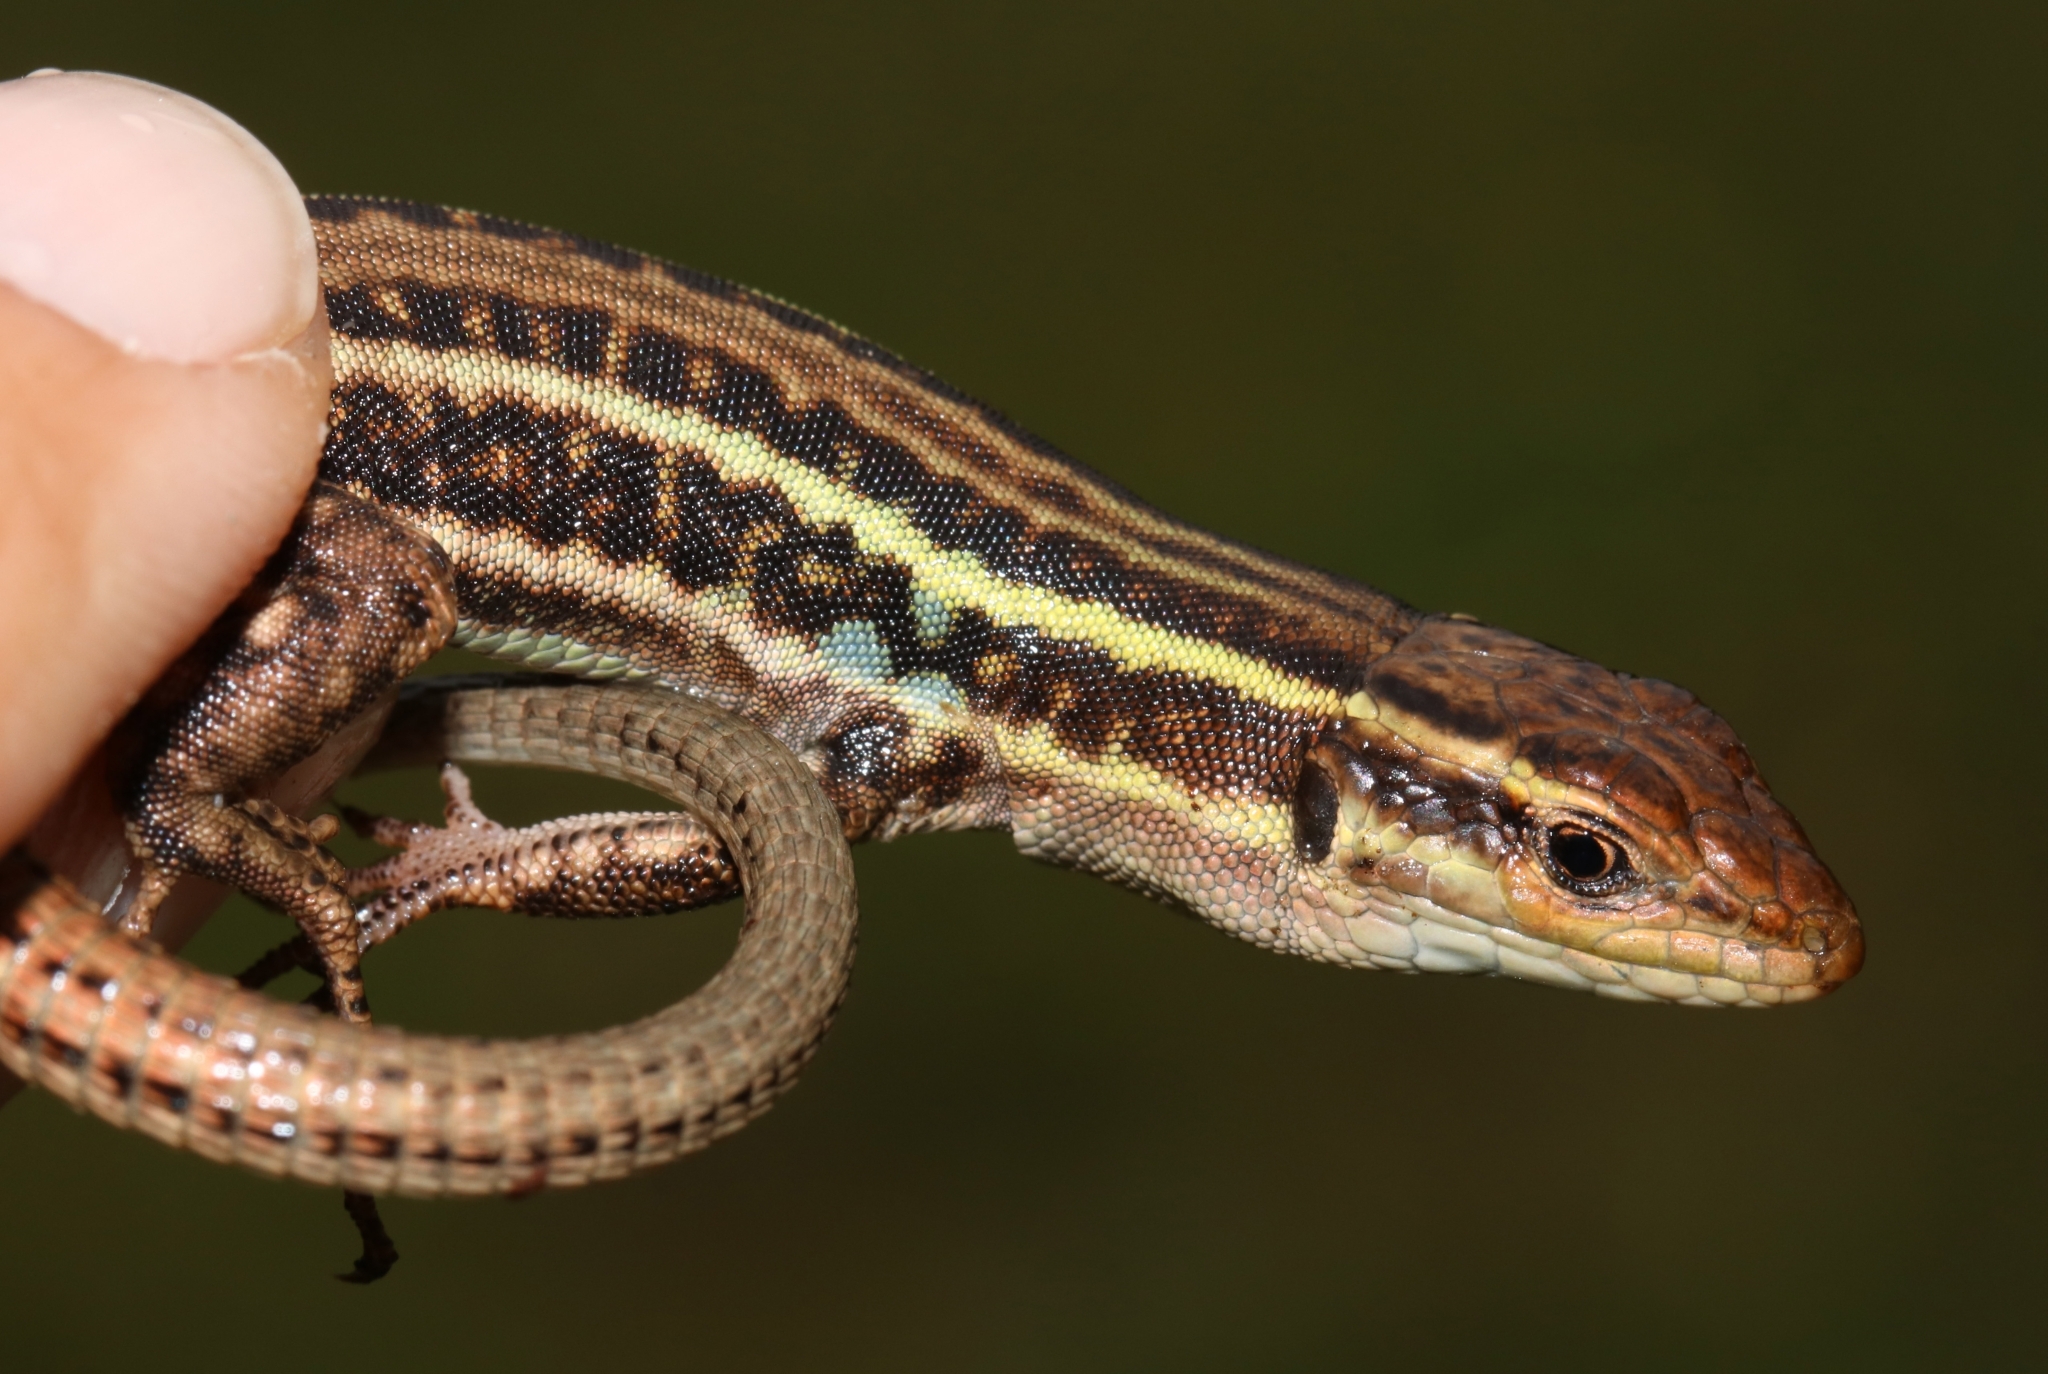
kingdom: Animalia
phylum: Chordata
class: Squamata
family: Lacertidae
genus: Podarcis
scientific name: Podarcis peloponnesiacus
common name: Peloponnese wall lizard
